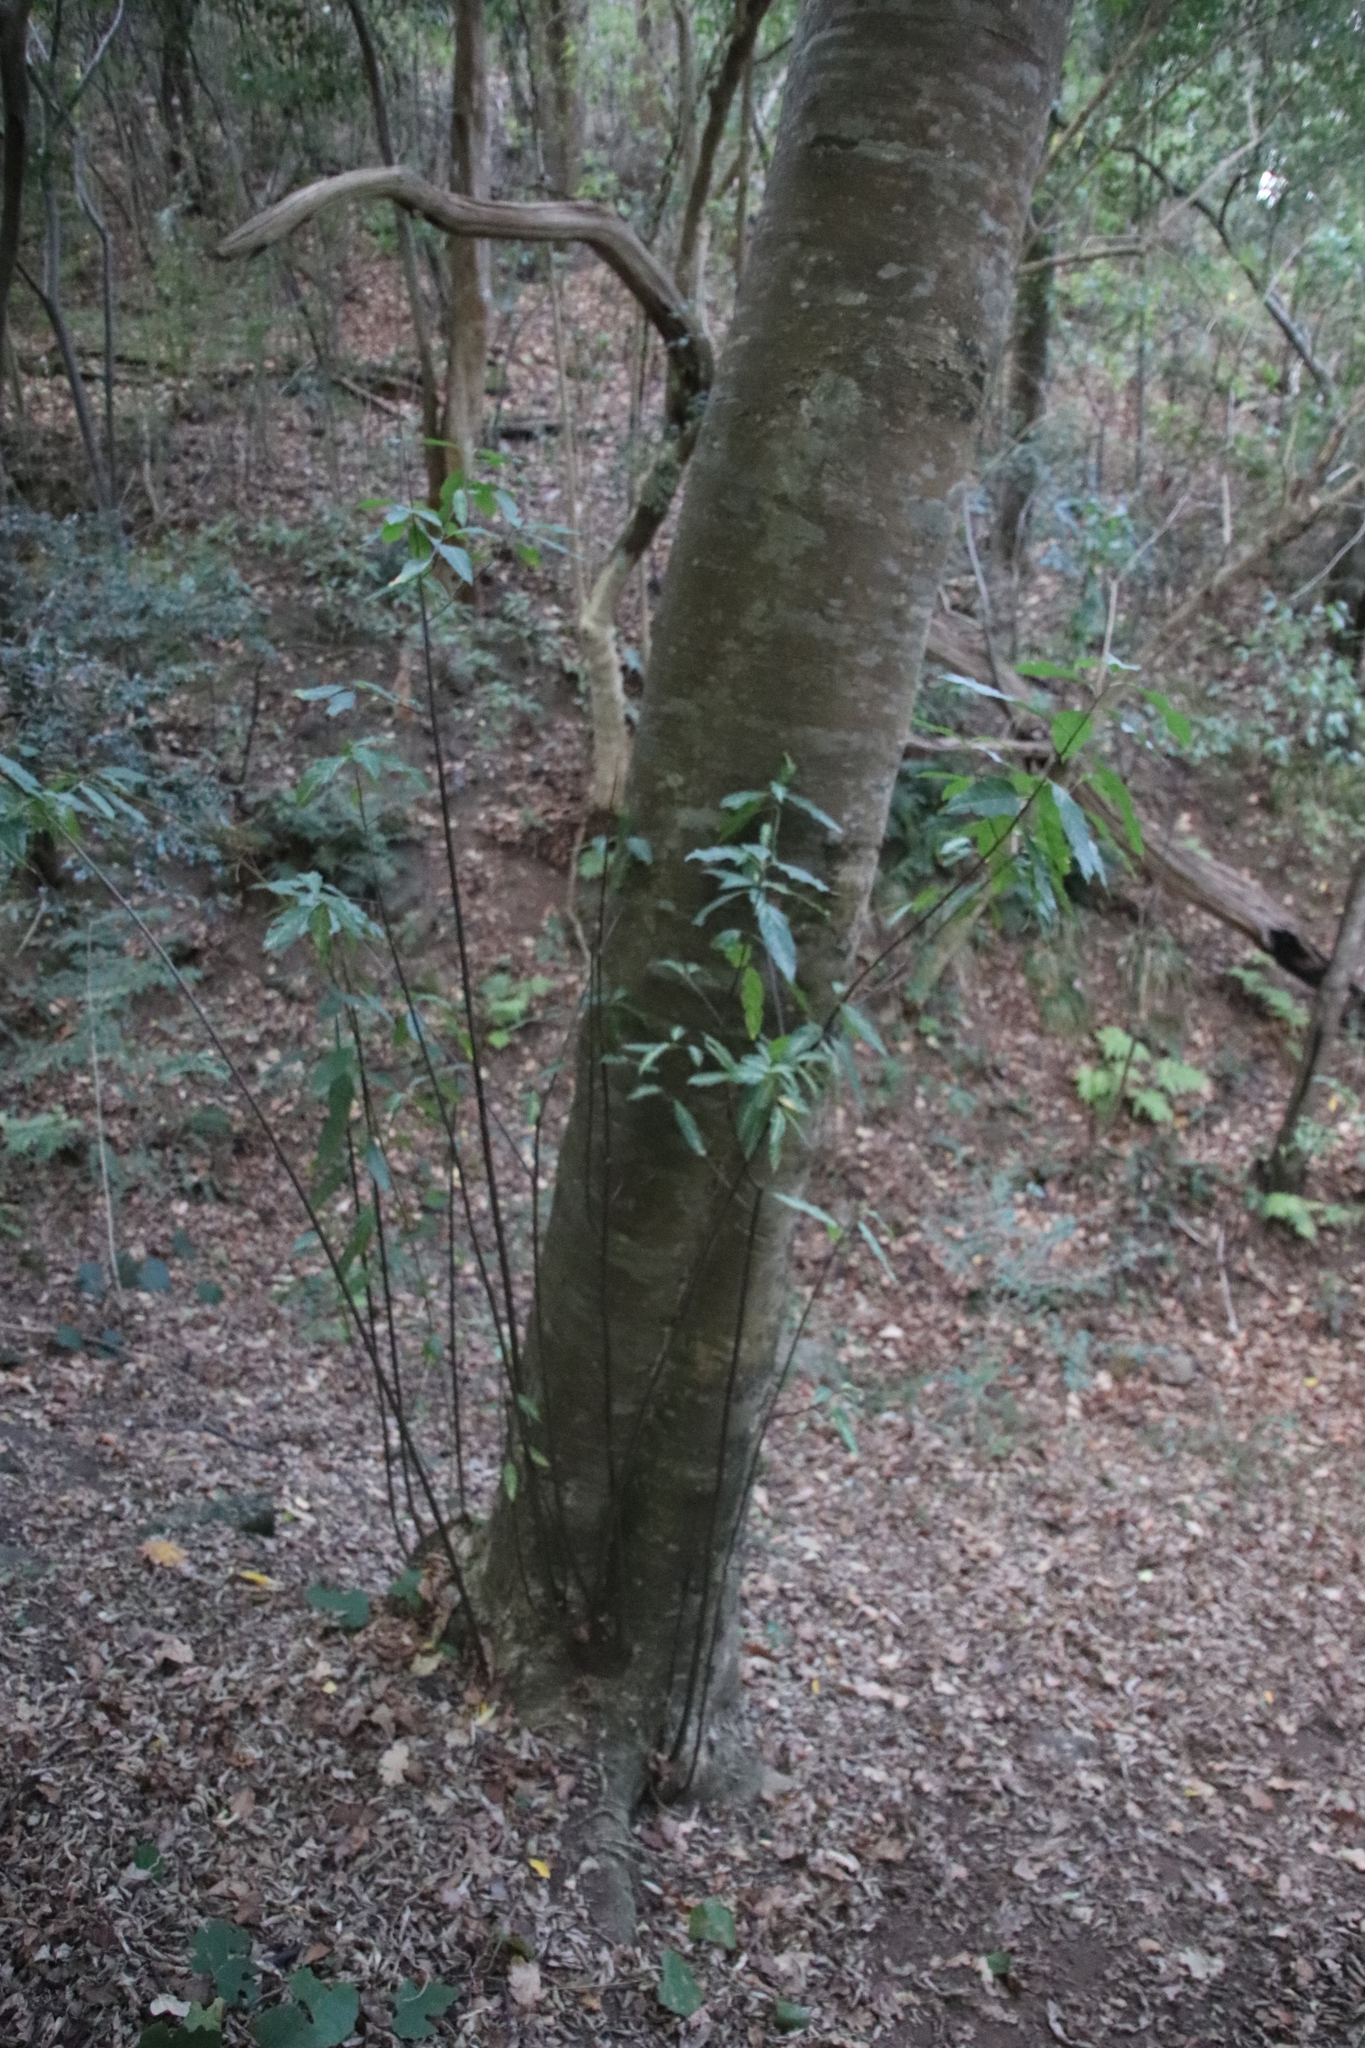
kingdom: Plantae
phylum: Tracheophyta
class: Magnoliopsida
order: Malpighiales
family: Achariaceae
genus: Kiggelaria
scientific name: Kiggelaria africana
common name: Wild peach
